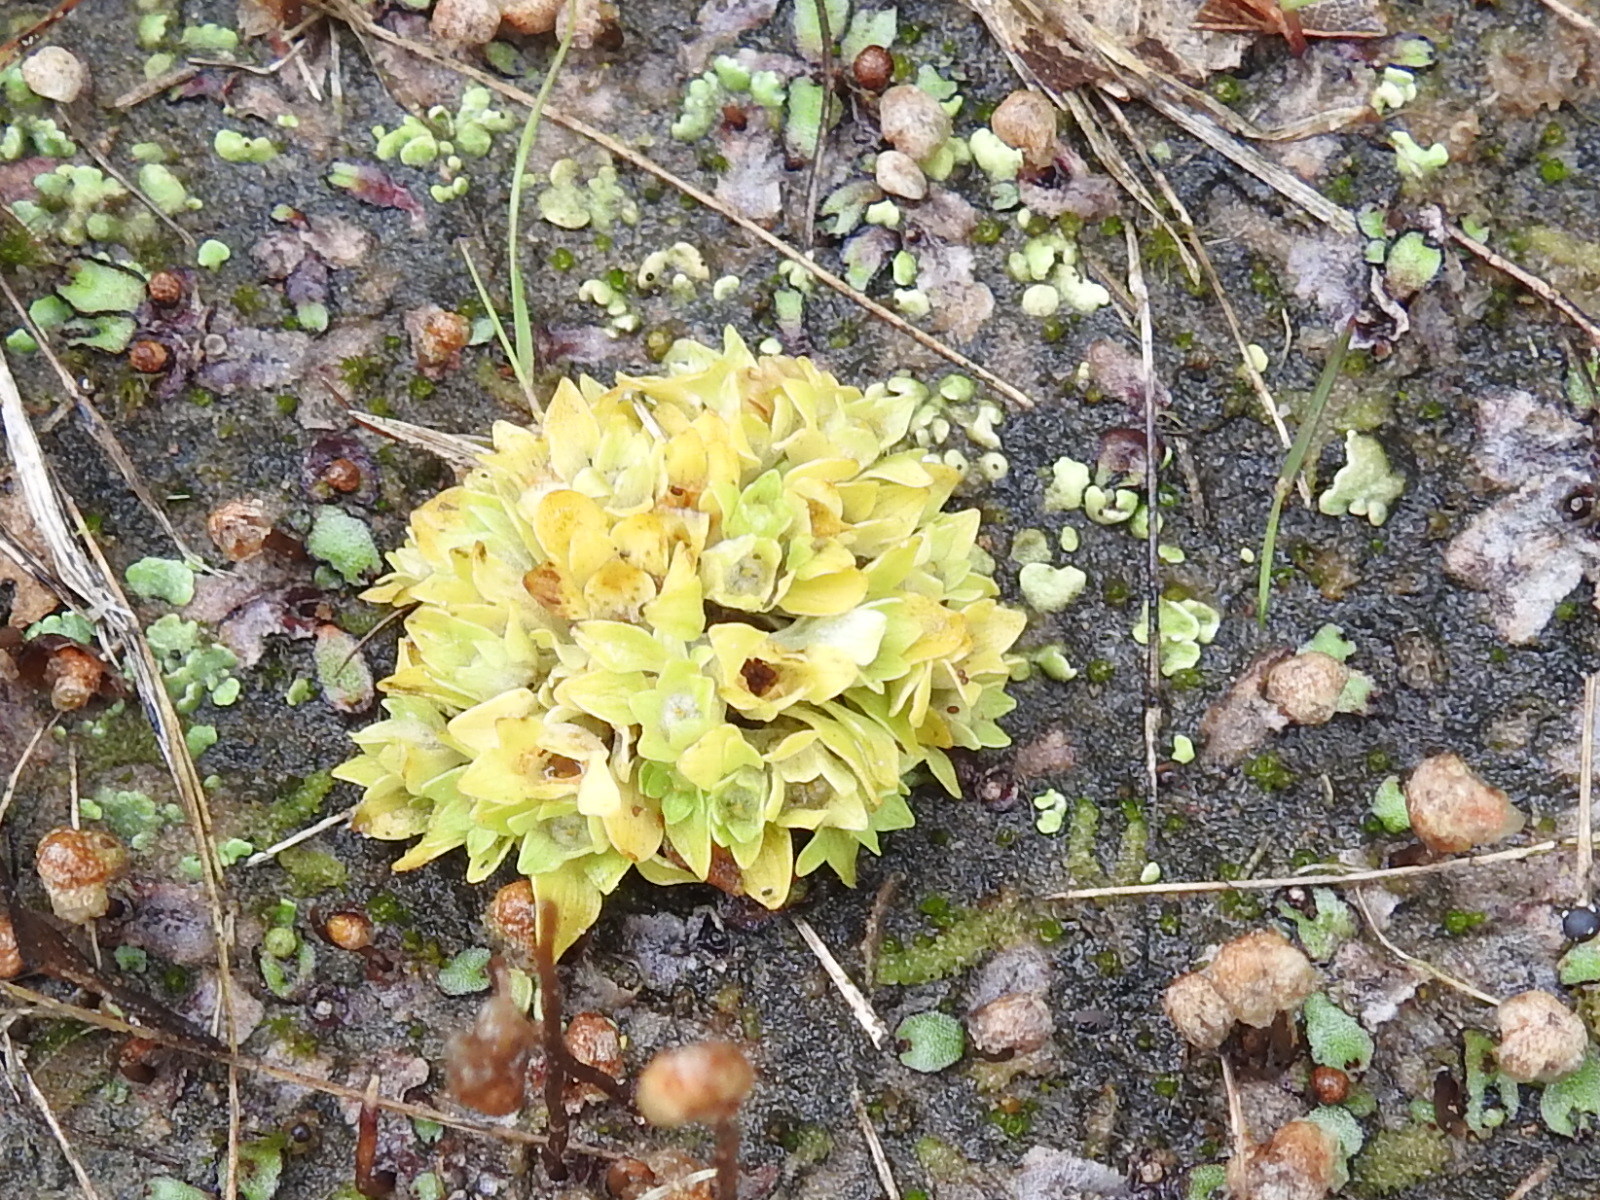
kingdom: Plantae
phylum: Tracheophyta
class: Magnoliopsida
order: Celastrales
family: Parnassiaceae
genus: Lepuropetalon
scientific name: Lepuropetalon spathulatum
